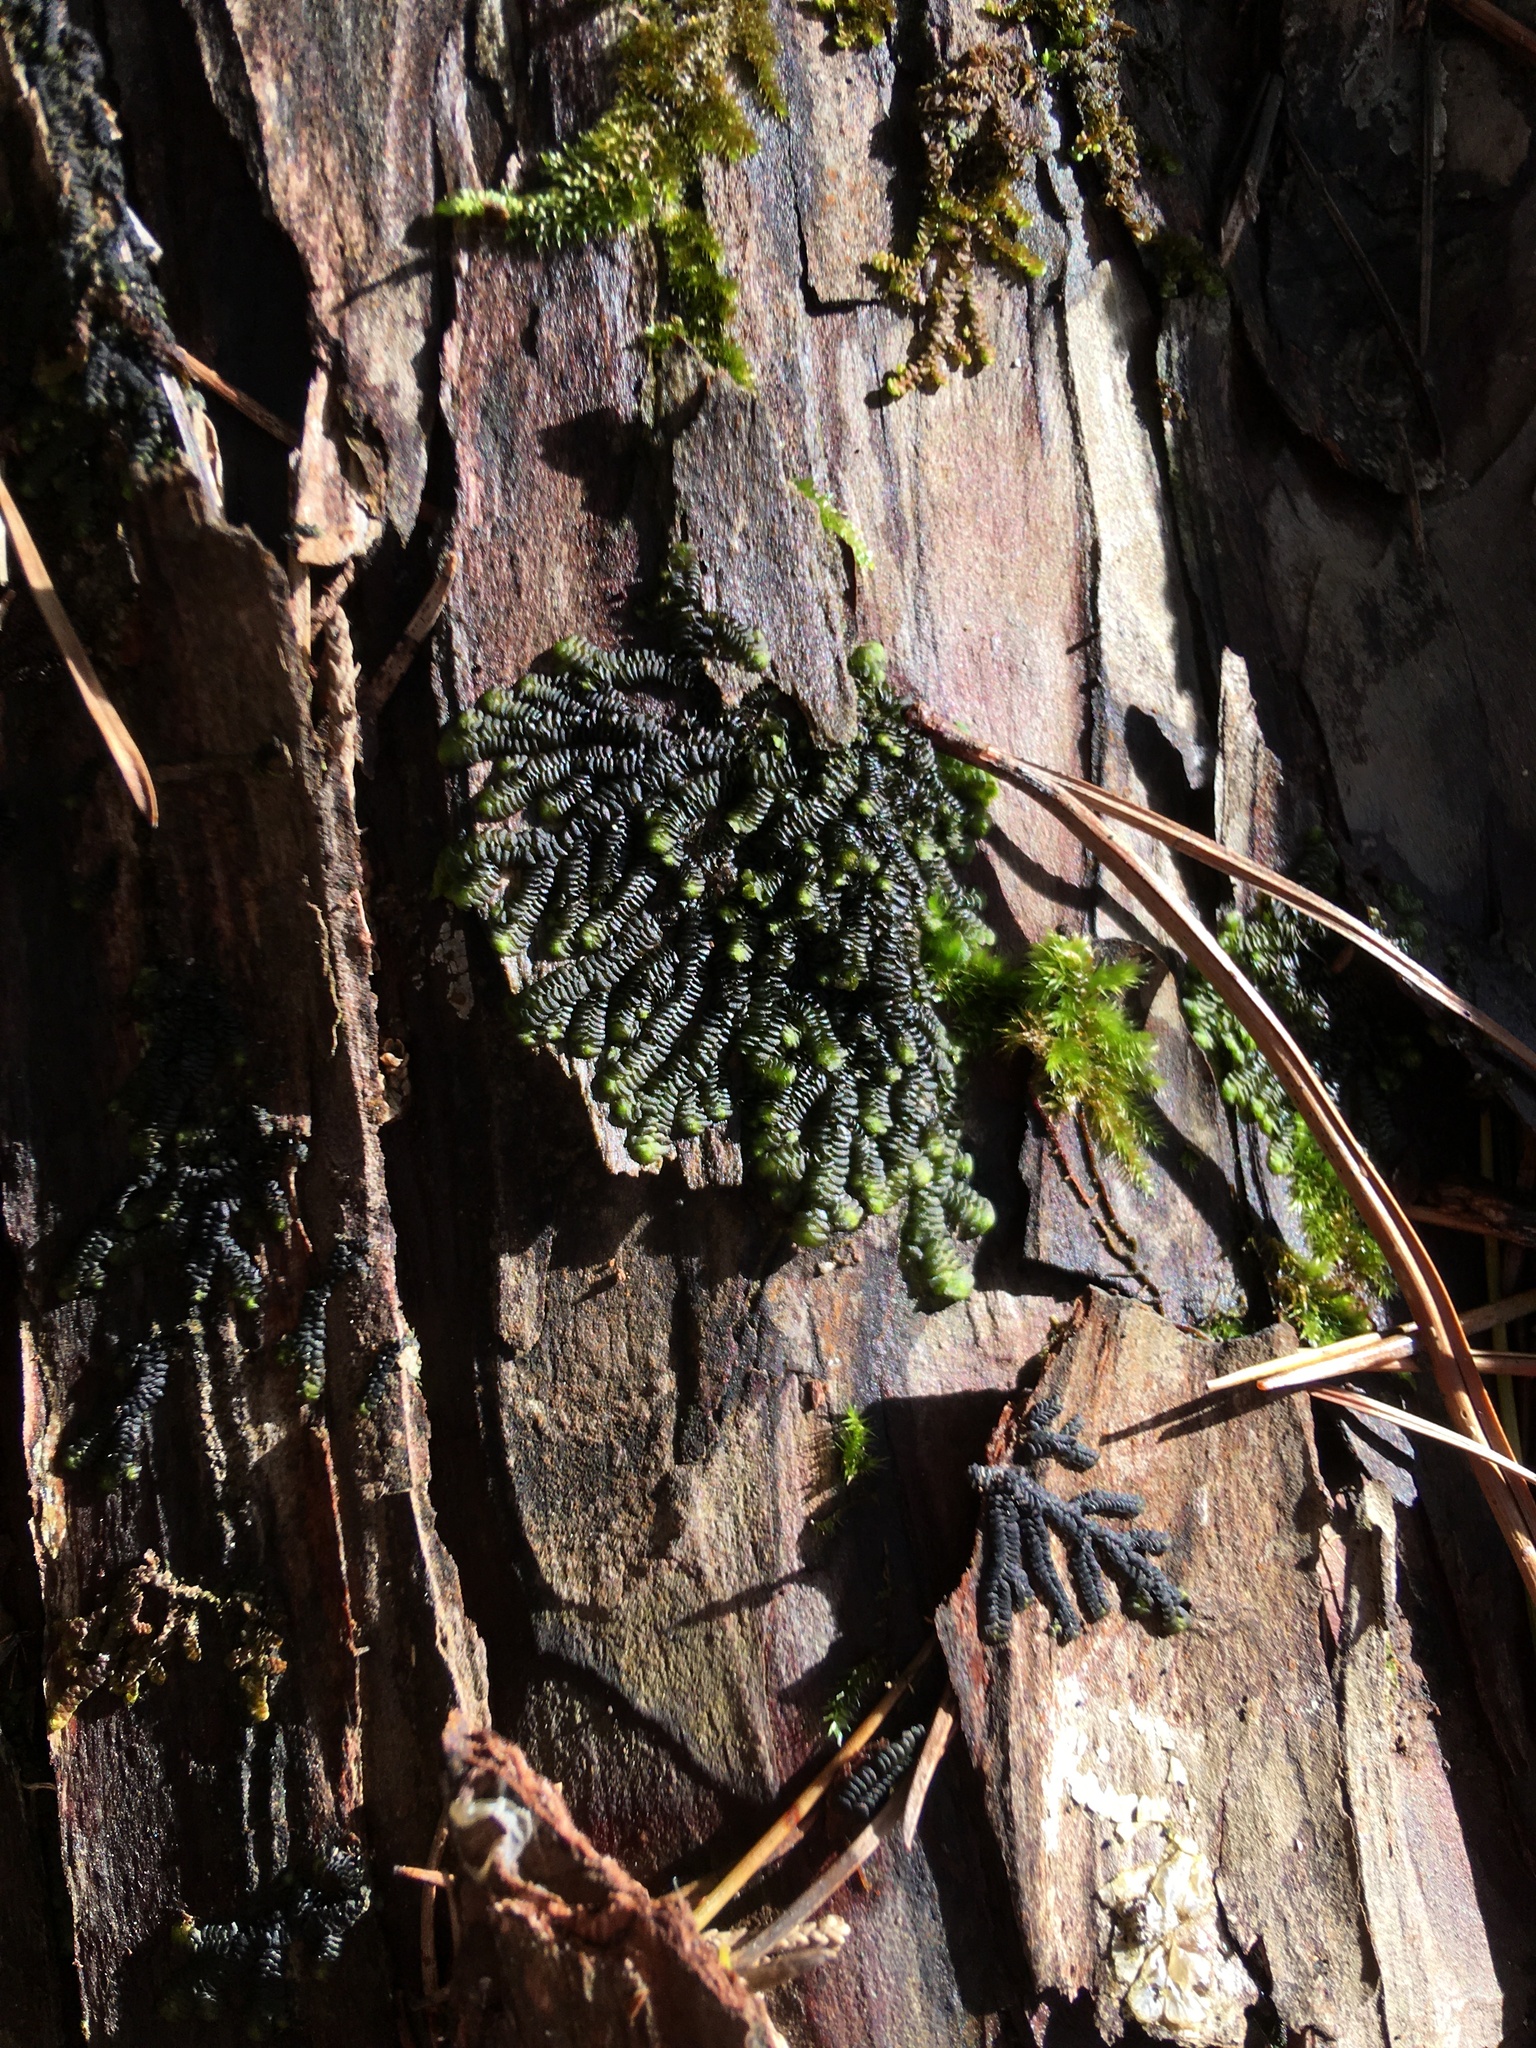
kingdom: Plantae
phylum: Marchantiophyta
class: Jungermanniopsida
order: Porellales
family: Frullaniaceae
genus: Frullania
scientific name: Frullania caffraria
